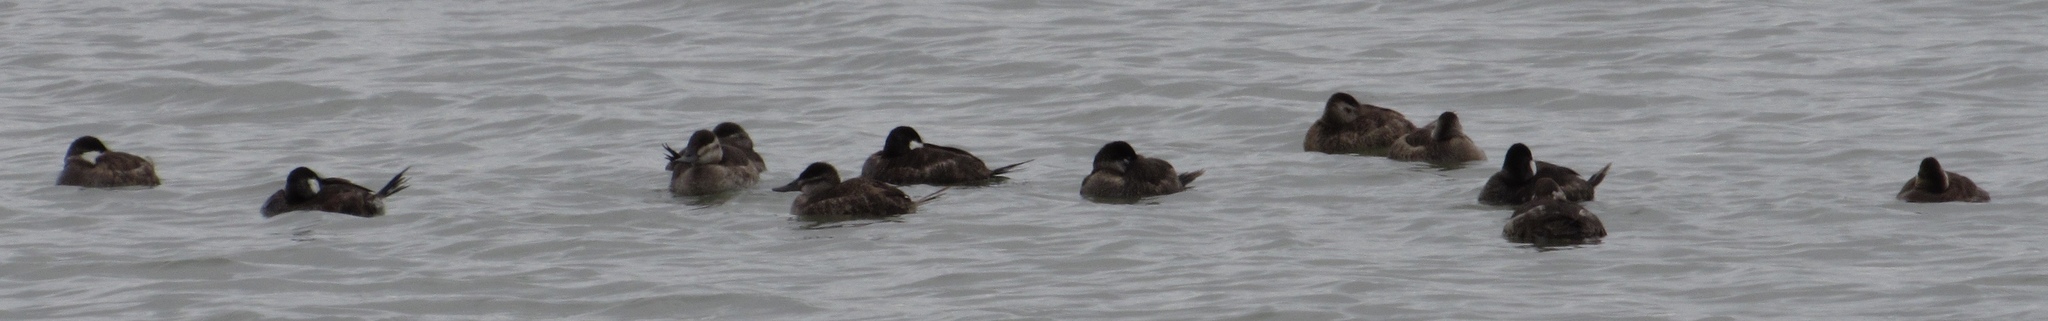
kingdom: Animalia
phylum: Chordata
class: Aves
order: Anseriformes
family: Anatidae
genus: Oxyura
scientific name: Oxyura jamaicensis
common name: Ruddy duck
